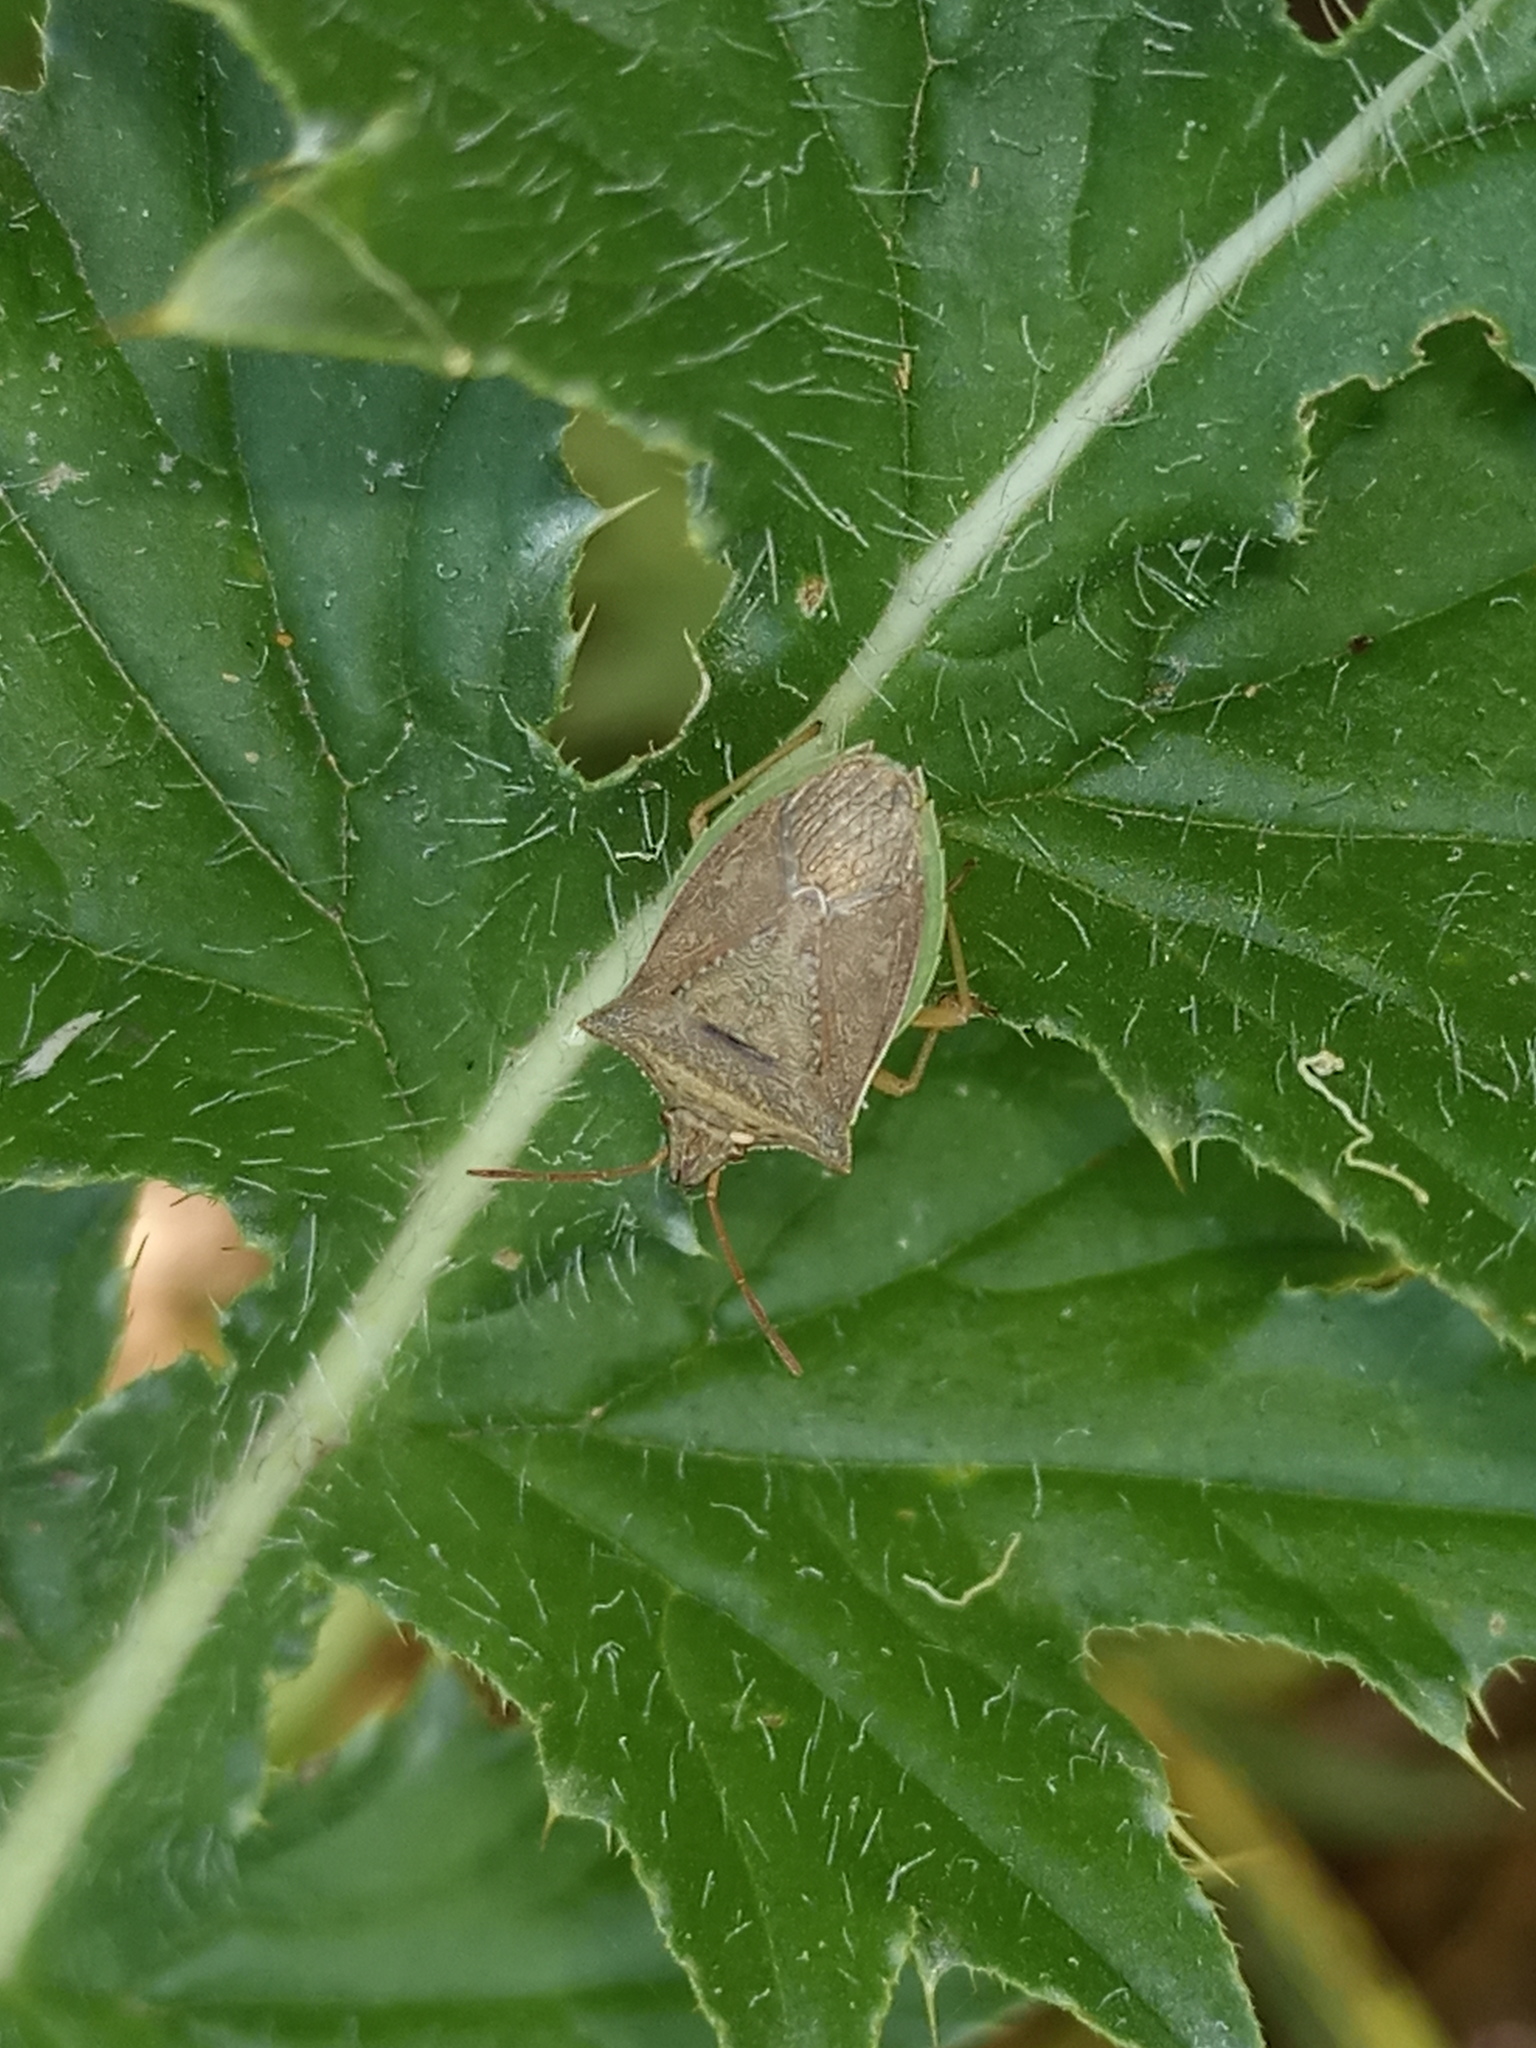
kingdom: Animalia
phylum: Arthropoda
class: Insecta
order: Hemiptera
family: Pentatomidae
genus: Diceraeus
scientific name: Diceraeus furcatus
